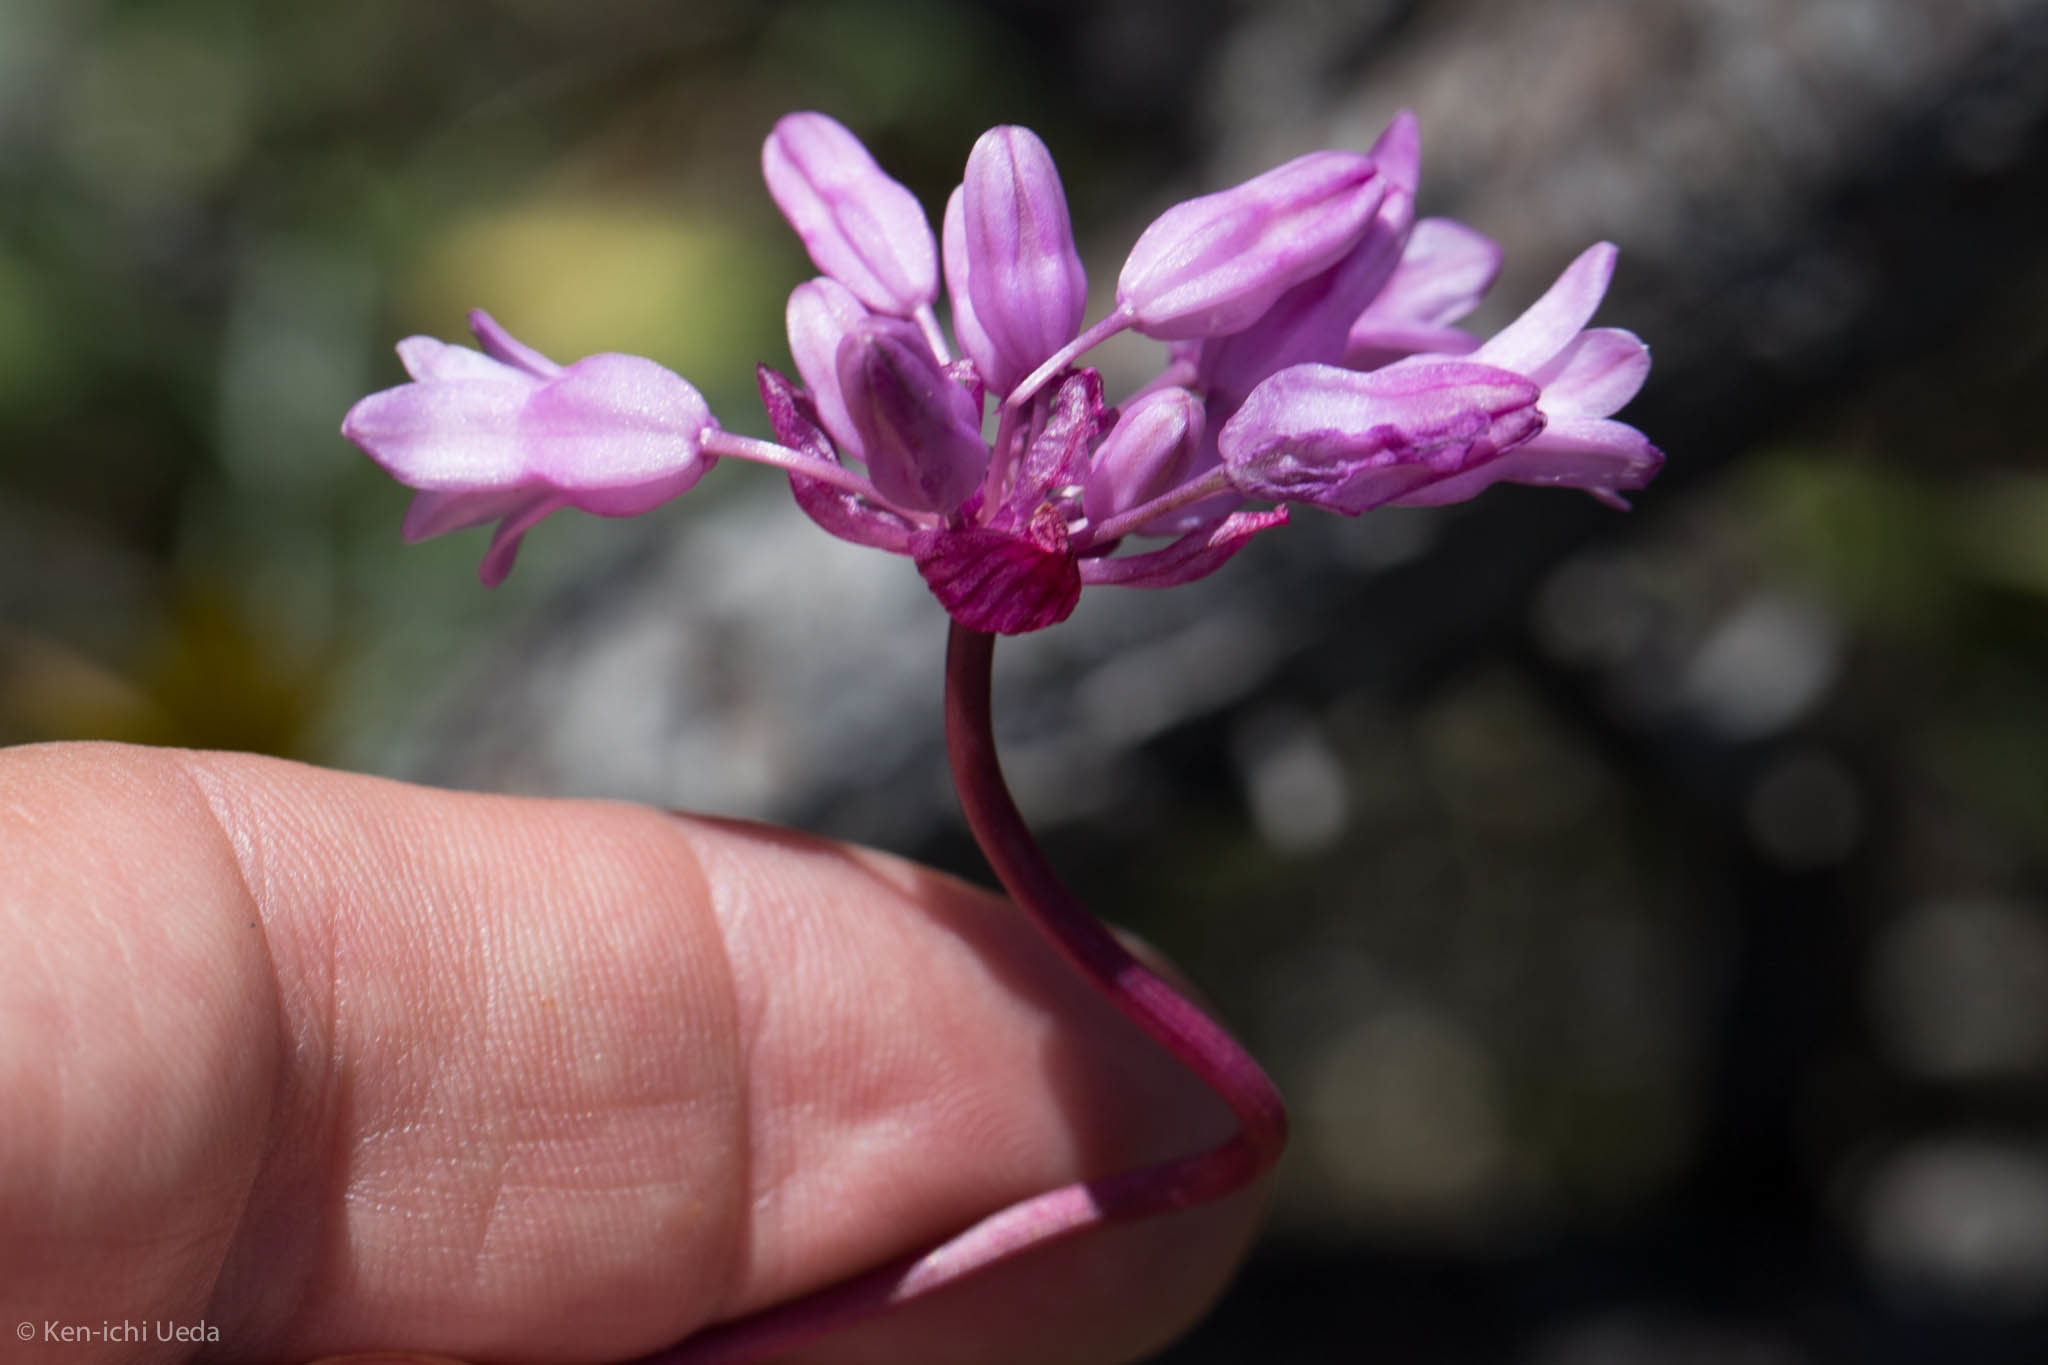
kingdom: Plantae
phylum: Tracheophyta
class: Liliopsida
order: Asparagales
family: Asparagaceae
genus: Dichelostemma
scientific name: Dichelostemma volubile
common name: Trining brodiaea
